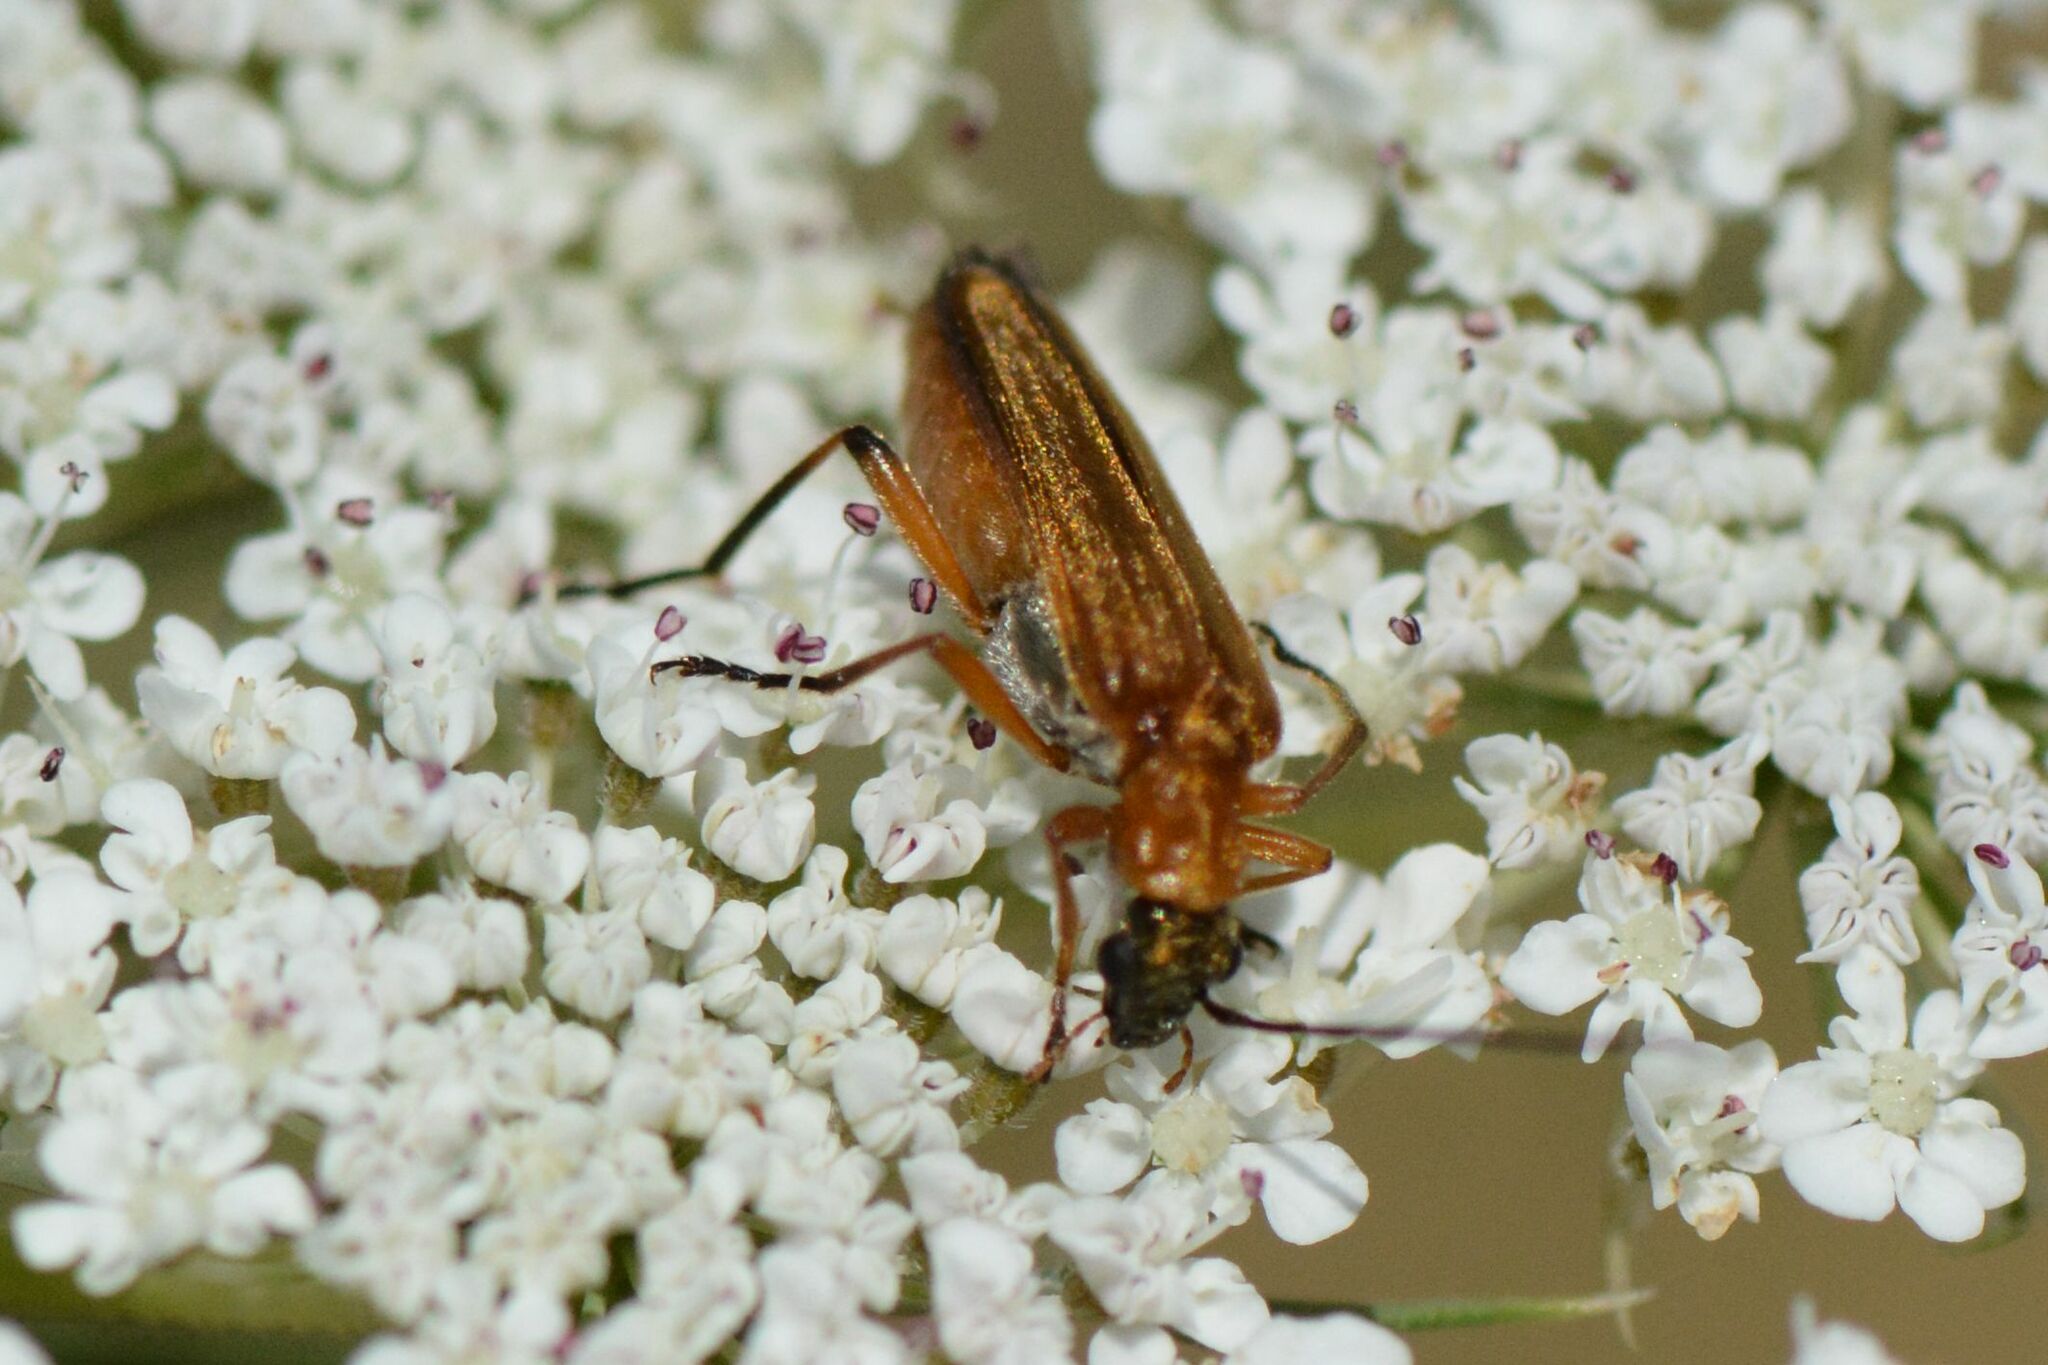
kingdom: Animalia
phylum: Arthropoda
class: Insecta
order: Coleoptera
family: Oedemeridae
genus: Oedemera
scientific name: Oedemera podagrariae
